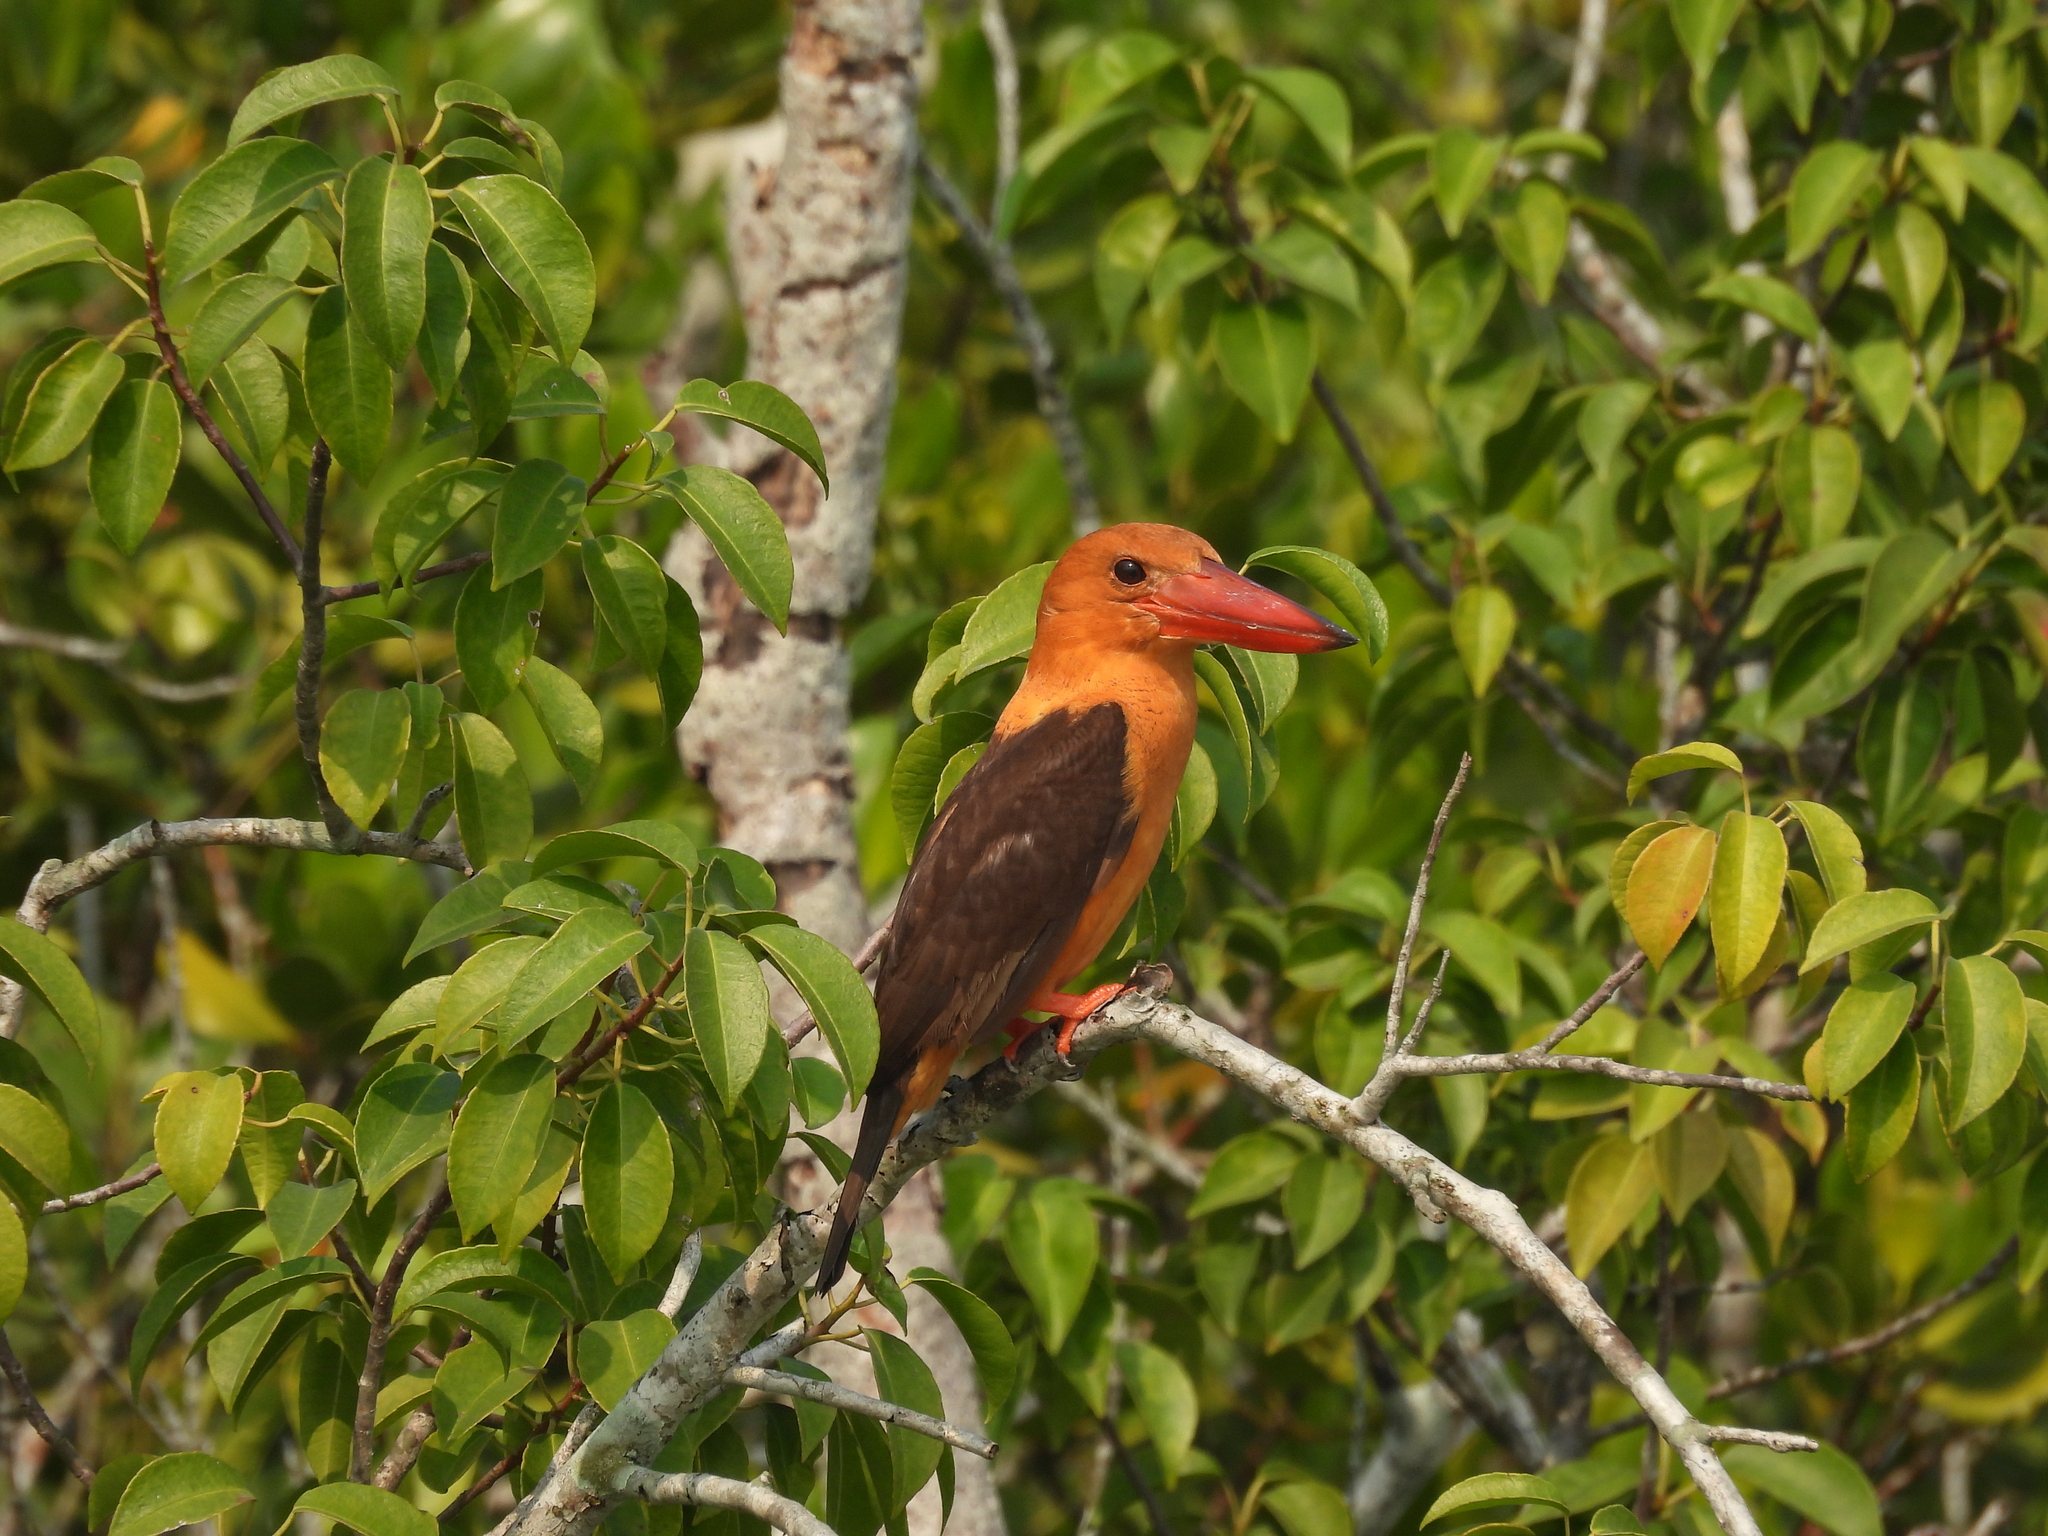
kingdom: Animalia
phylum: Chordata
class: Aves
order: Coraciiformes
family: Alcedinidae
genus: Pelargopsis
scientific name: Pelargopsis amauroptera
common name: Brown-winged kingfisher
